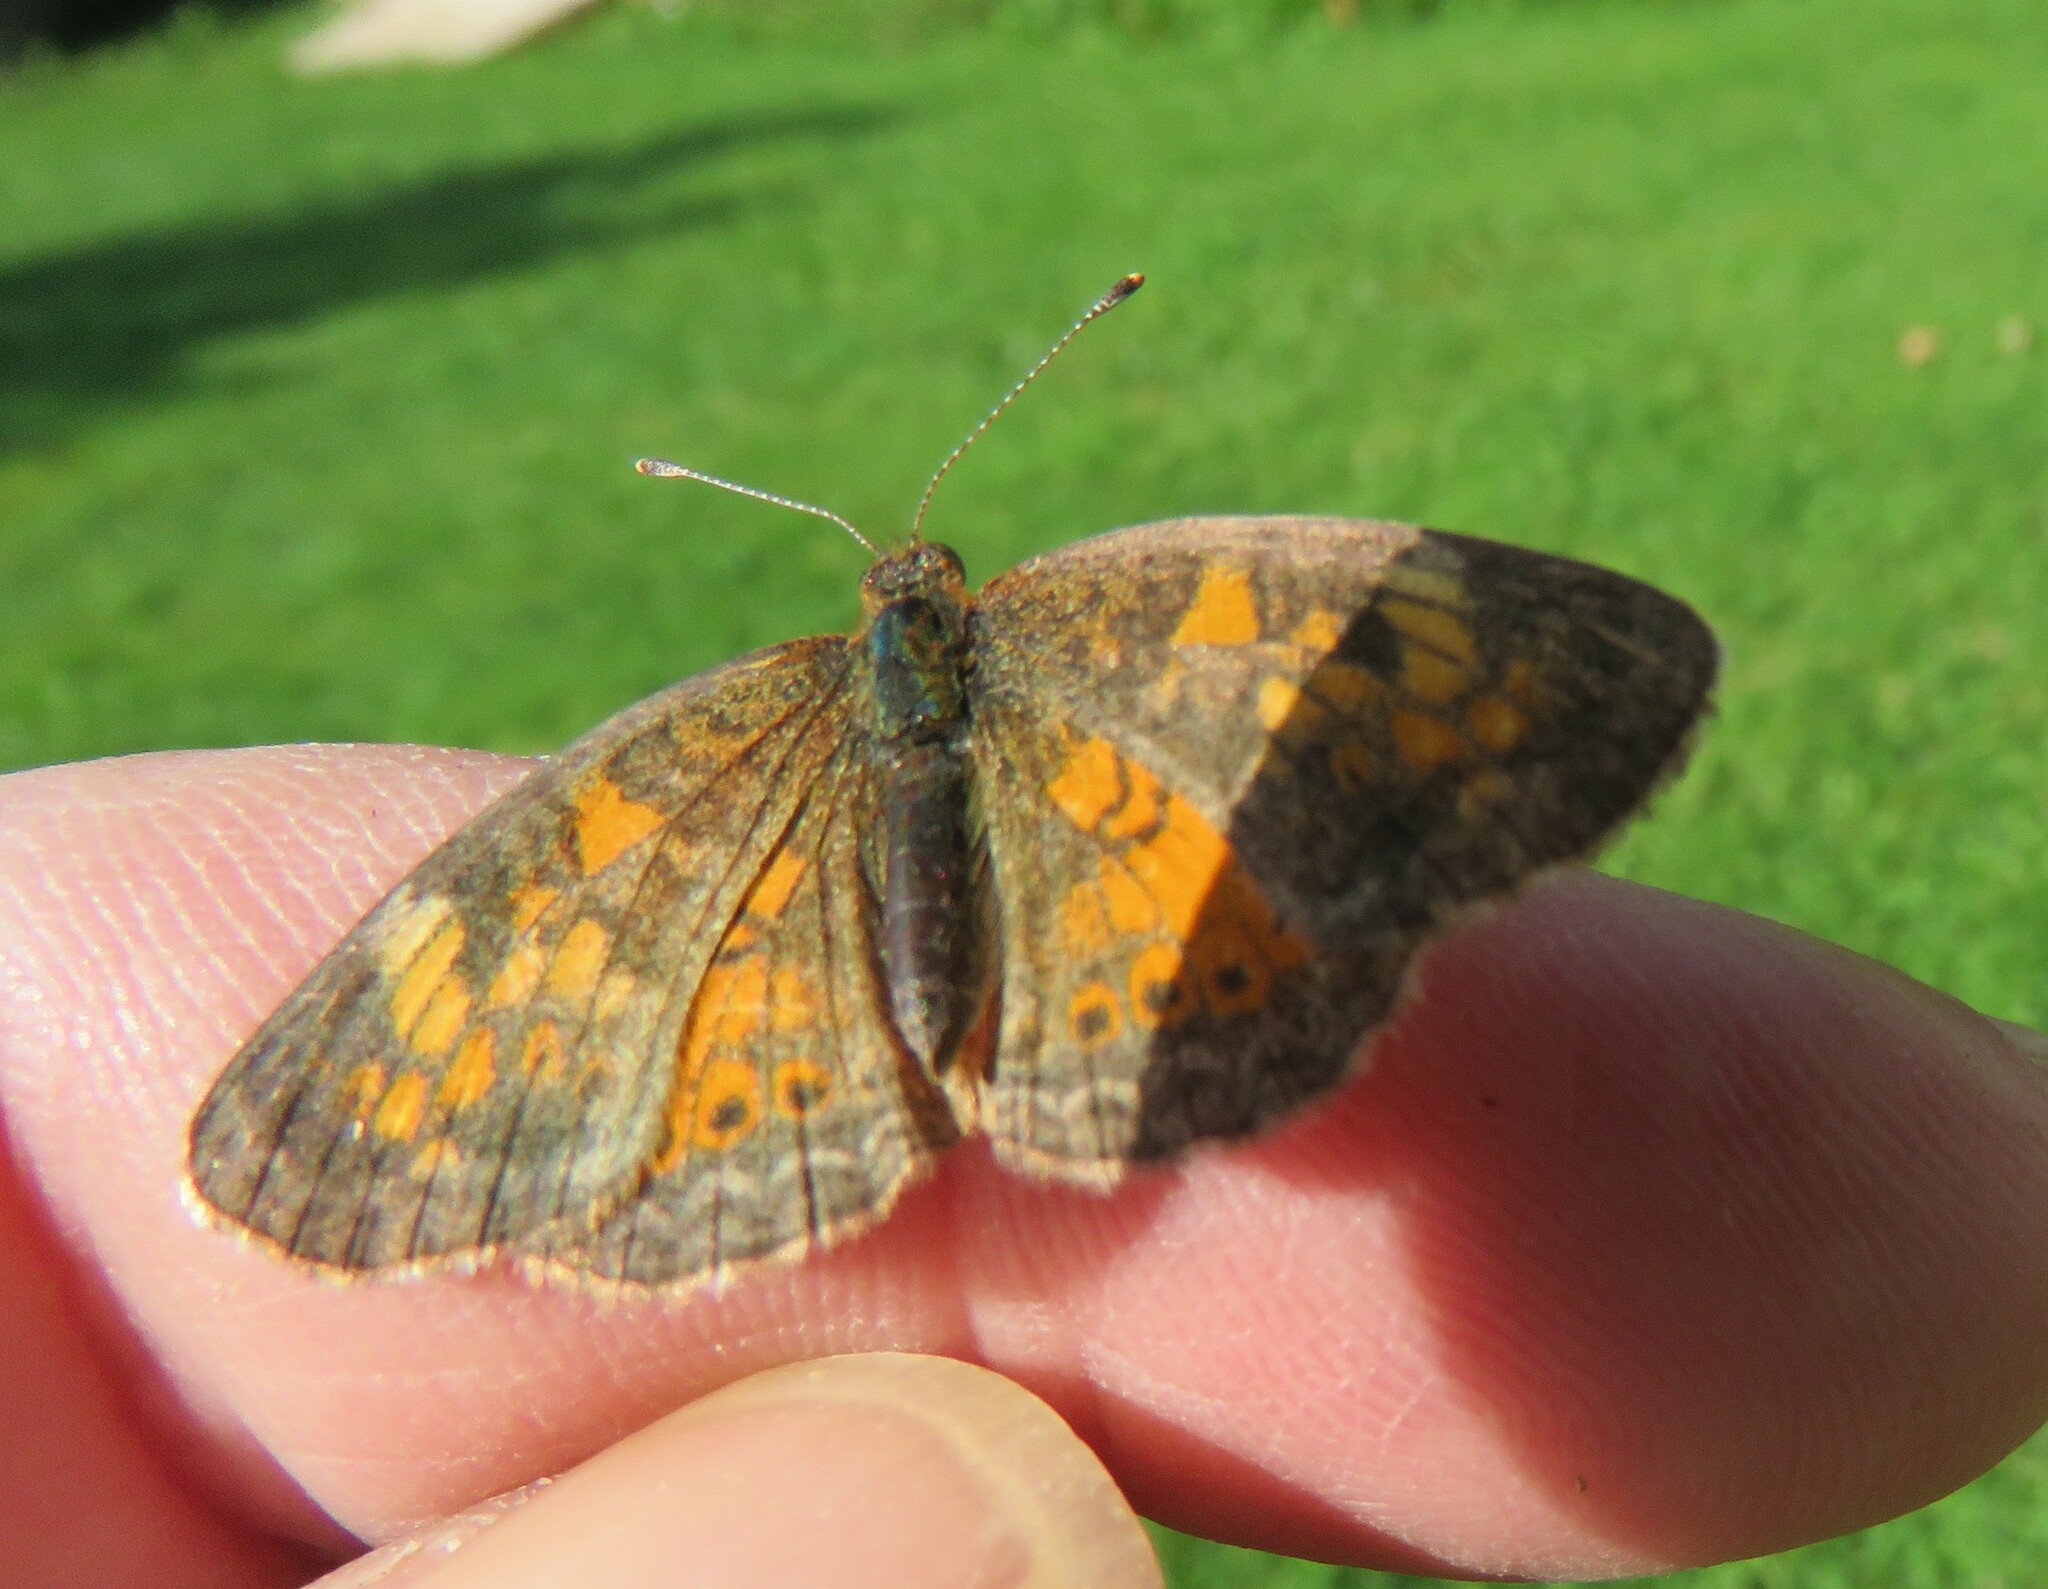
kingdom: Animalia
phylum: Arthropoda
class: Insecta
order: Lepidoptera
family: Nymphalidae
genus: Phyciodes
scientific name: Phyciodes tharos
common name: Pearl crescent
